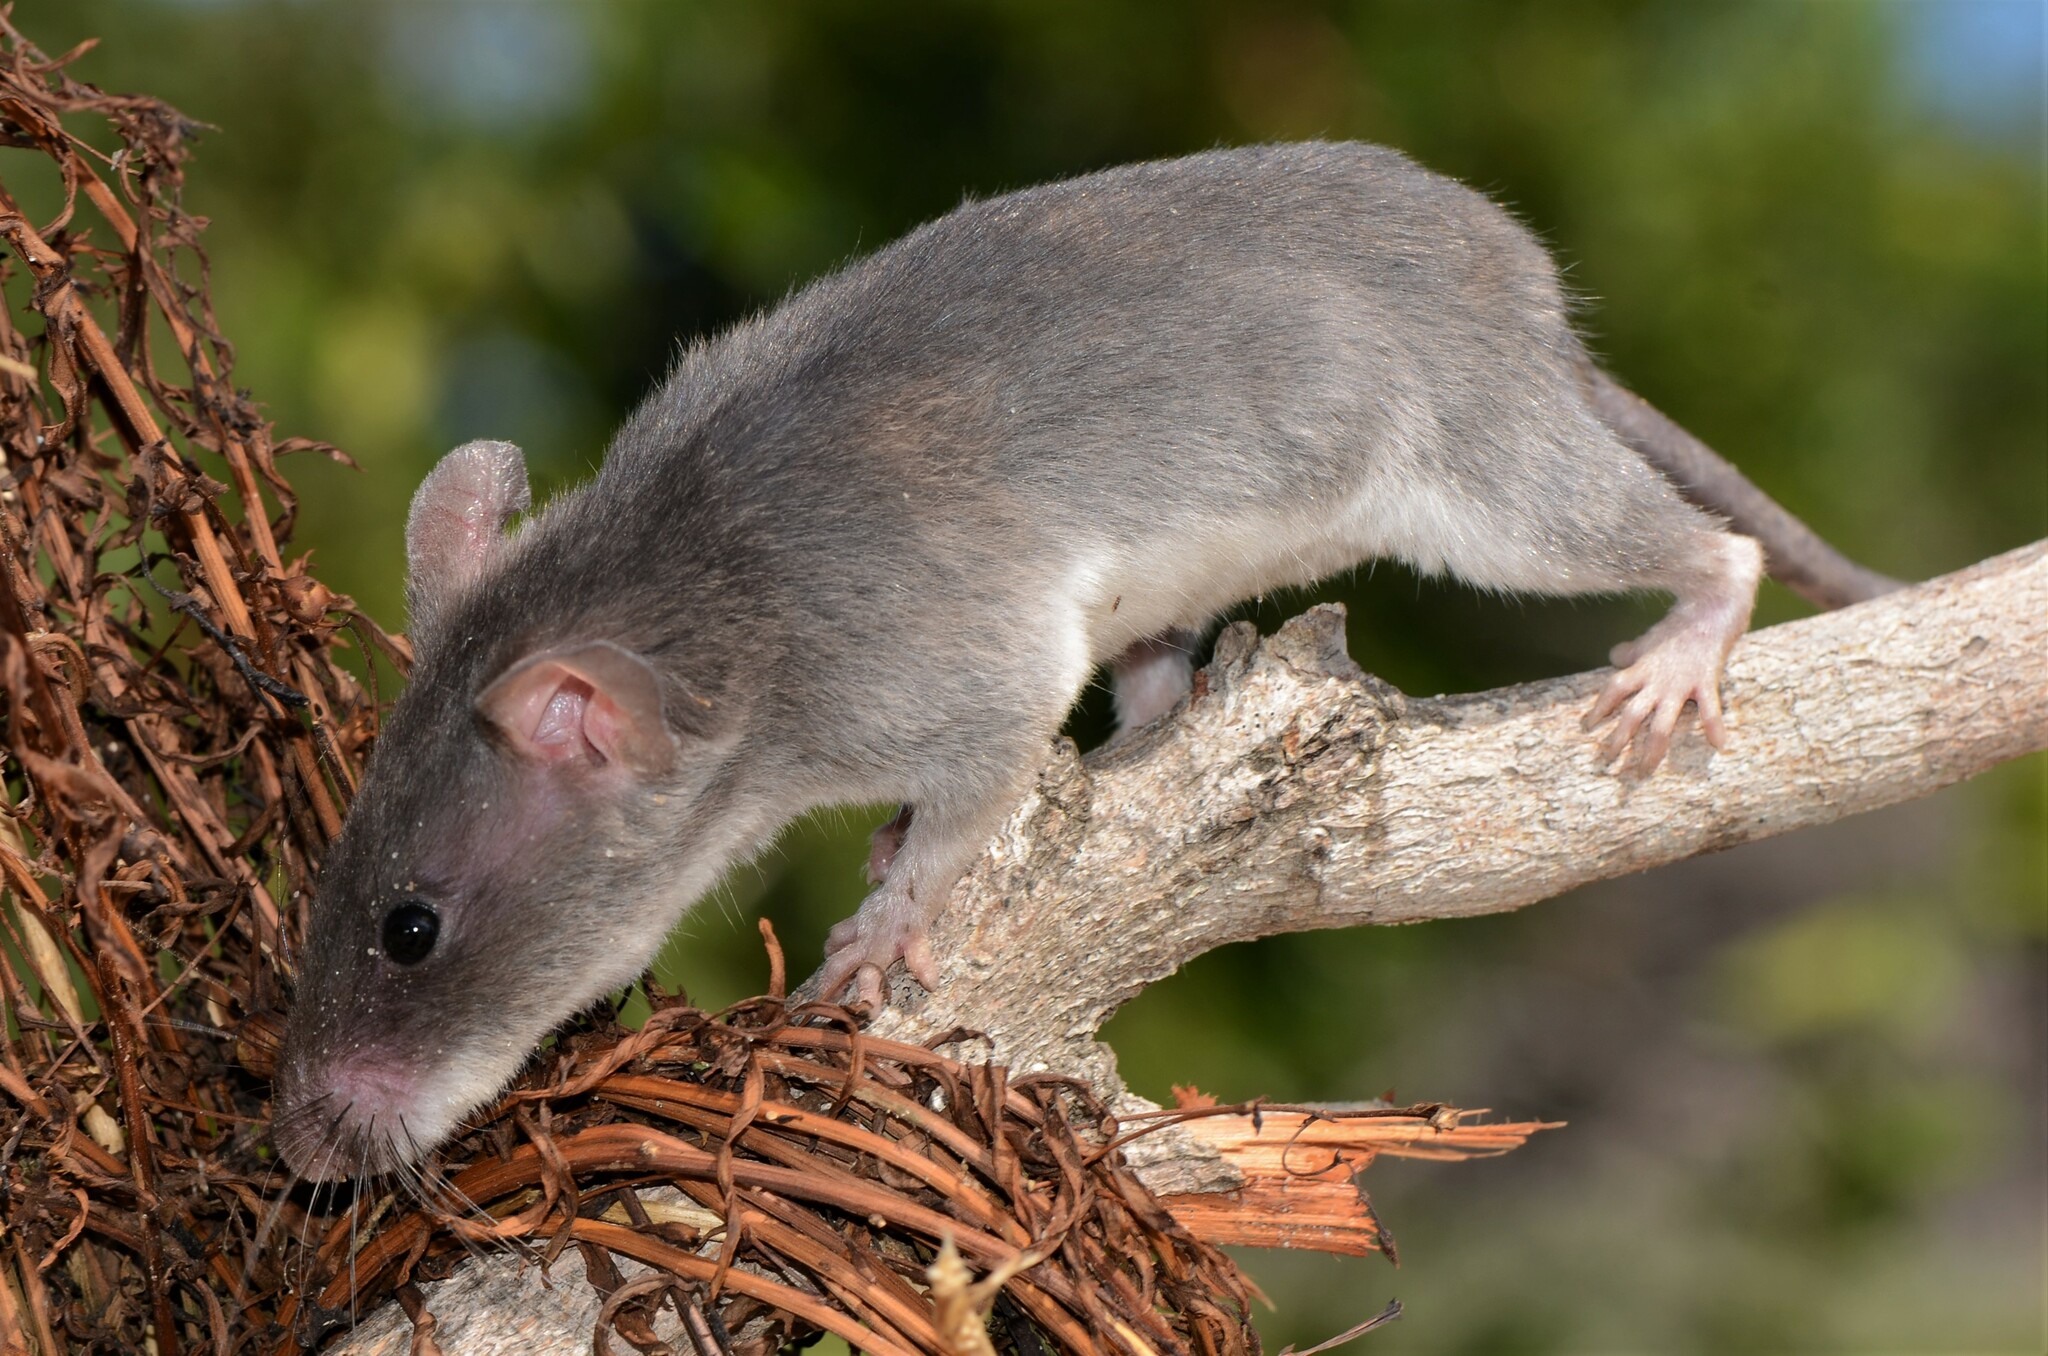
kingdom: Animalia
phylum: Chordata
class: Mammalia
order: Rodentia
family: Nesomyidae
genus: Beamys
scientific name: Beamys hindei
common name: Lesser hamster-rat, long-tailed pouched rat
